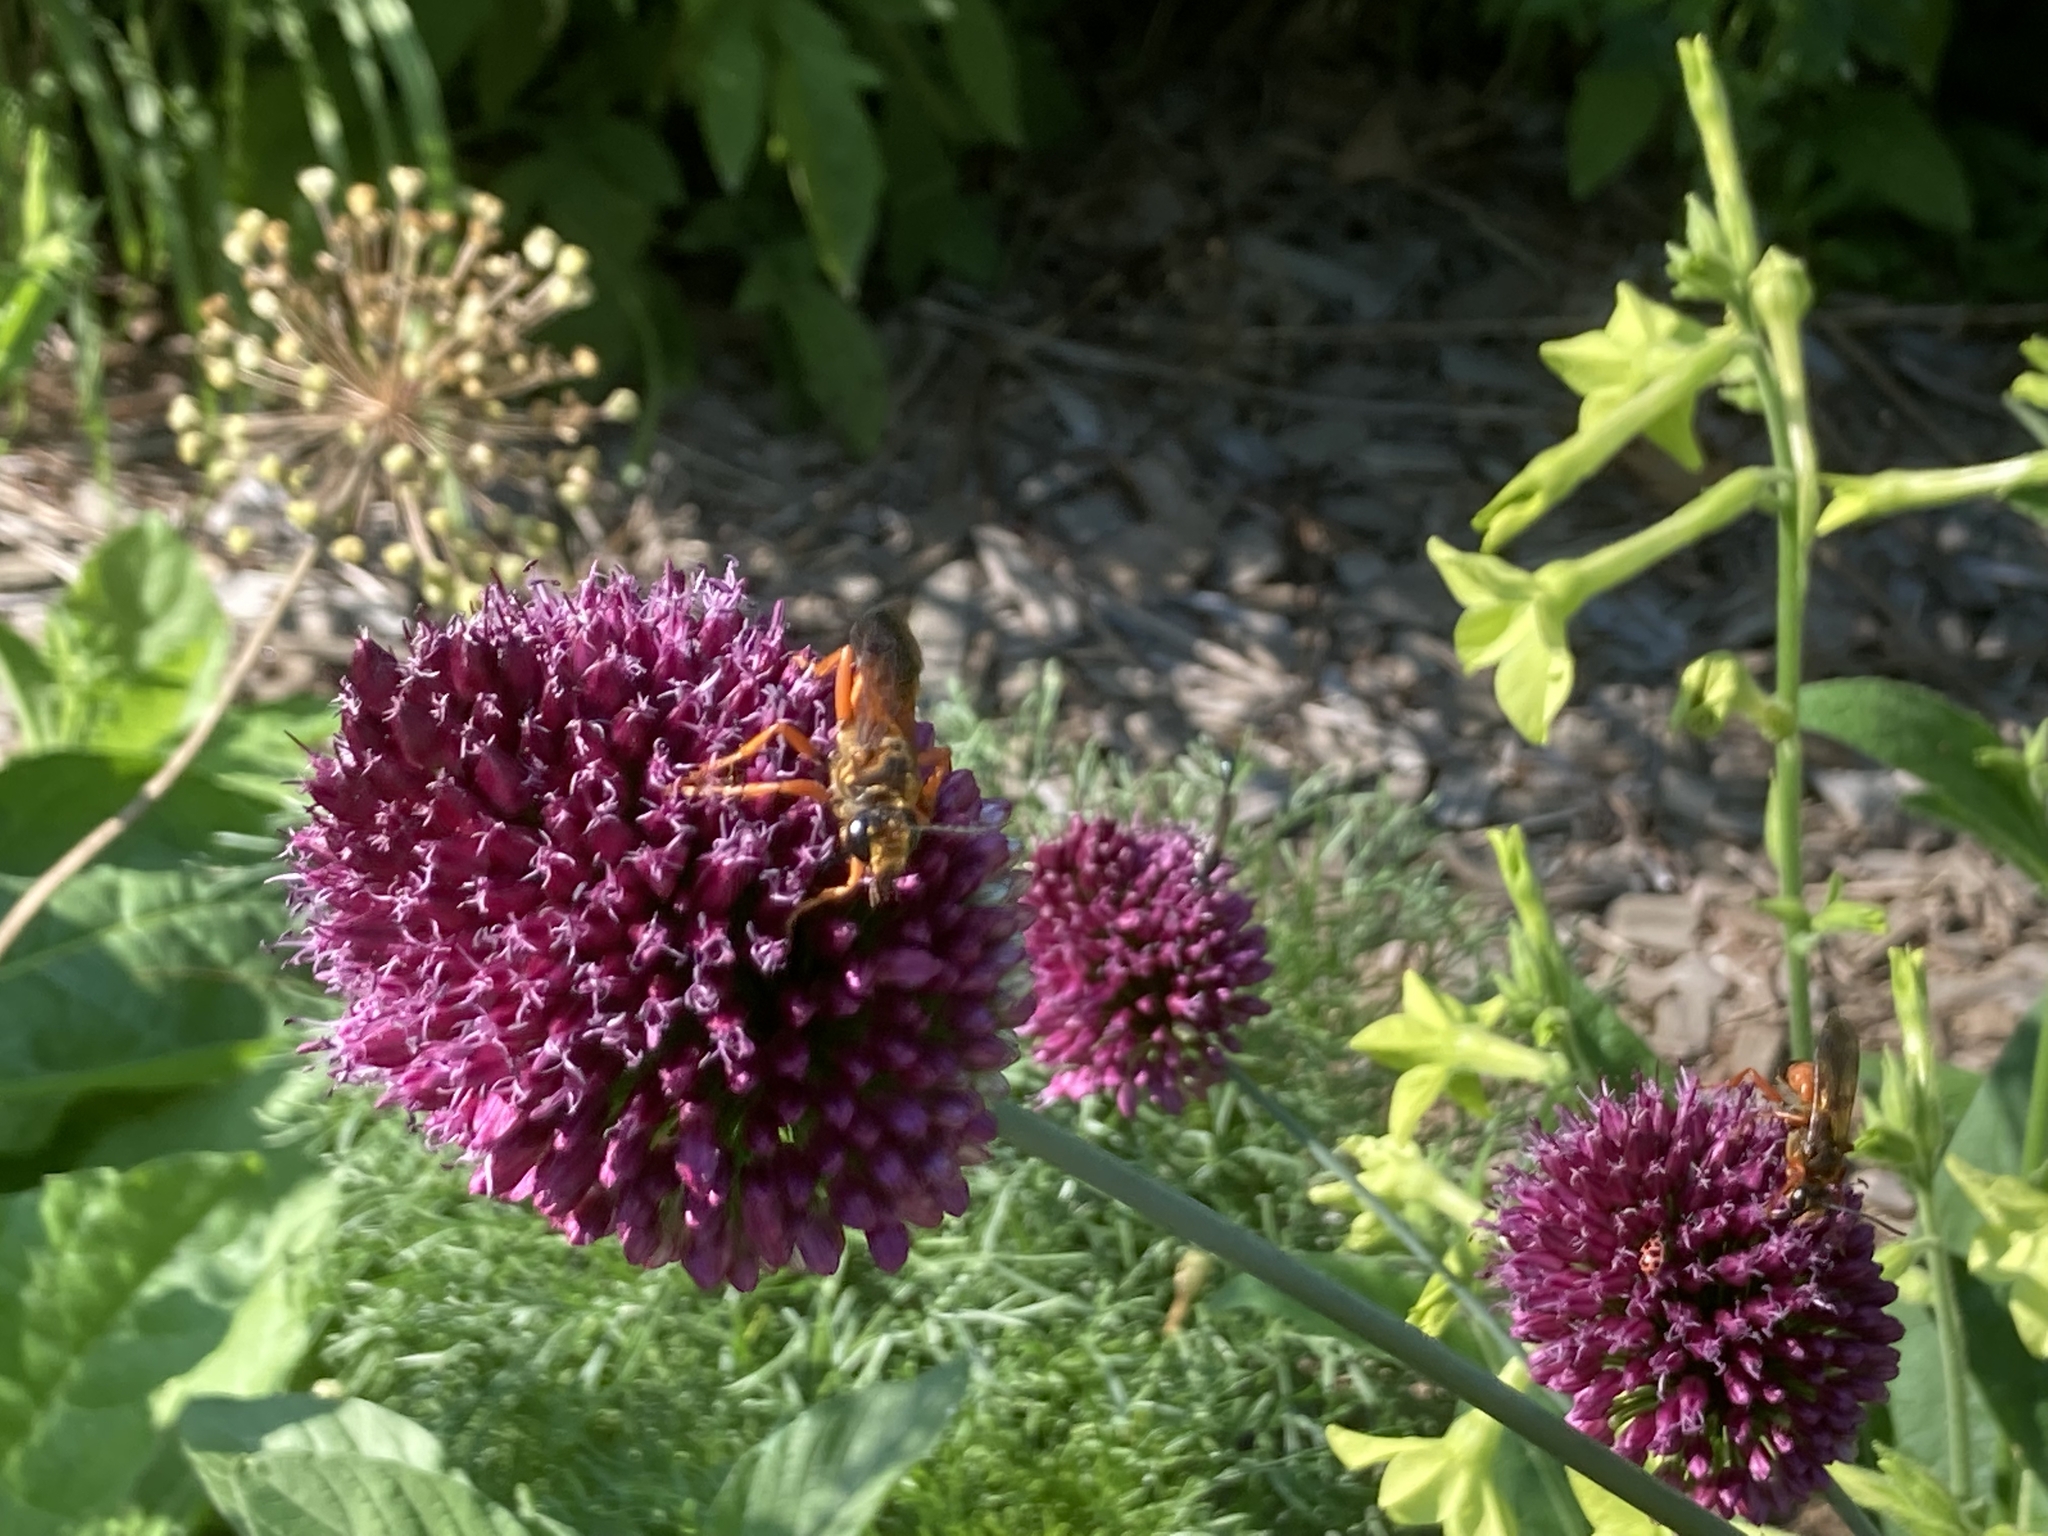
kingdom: Animalia
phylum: Arthropoda
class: Insecta
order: Hymenoptera
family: Sphecidae
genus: Sphex
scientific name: Sphex ichneumoneus
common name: Great golden digger wasp
